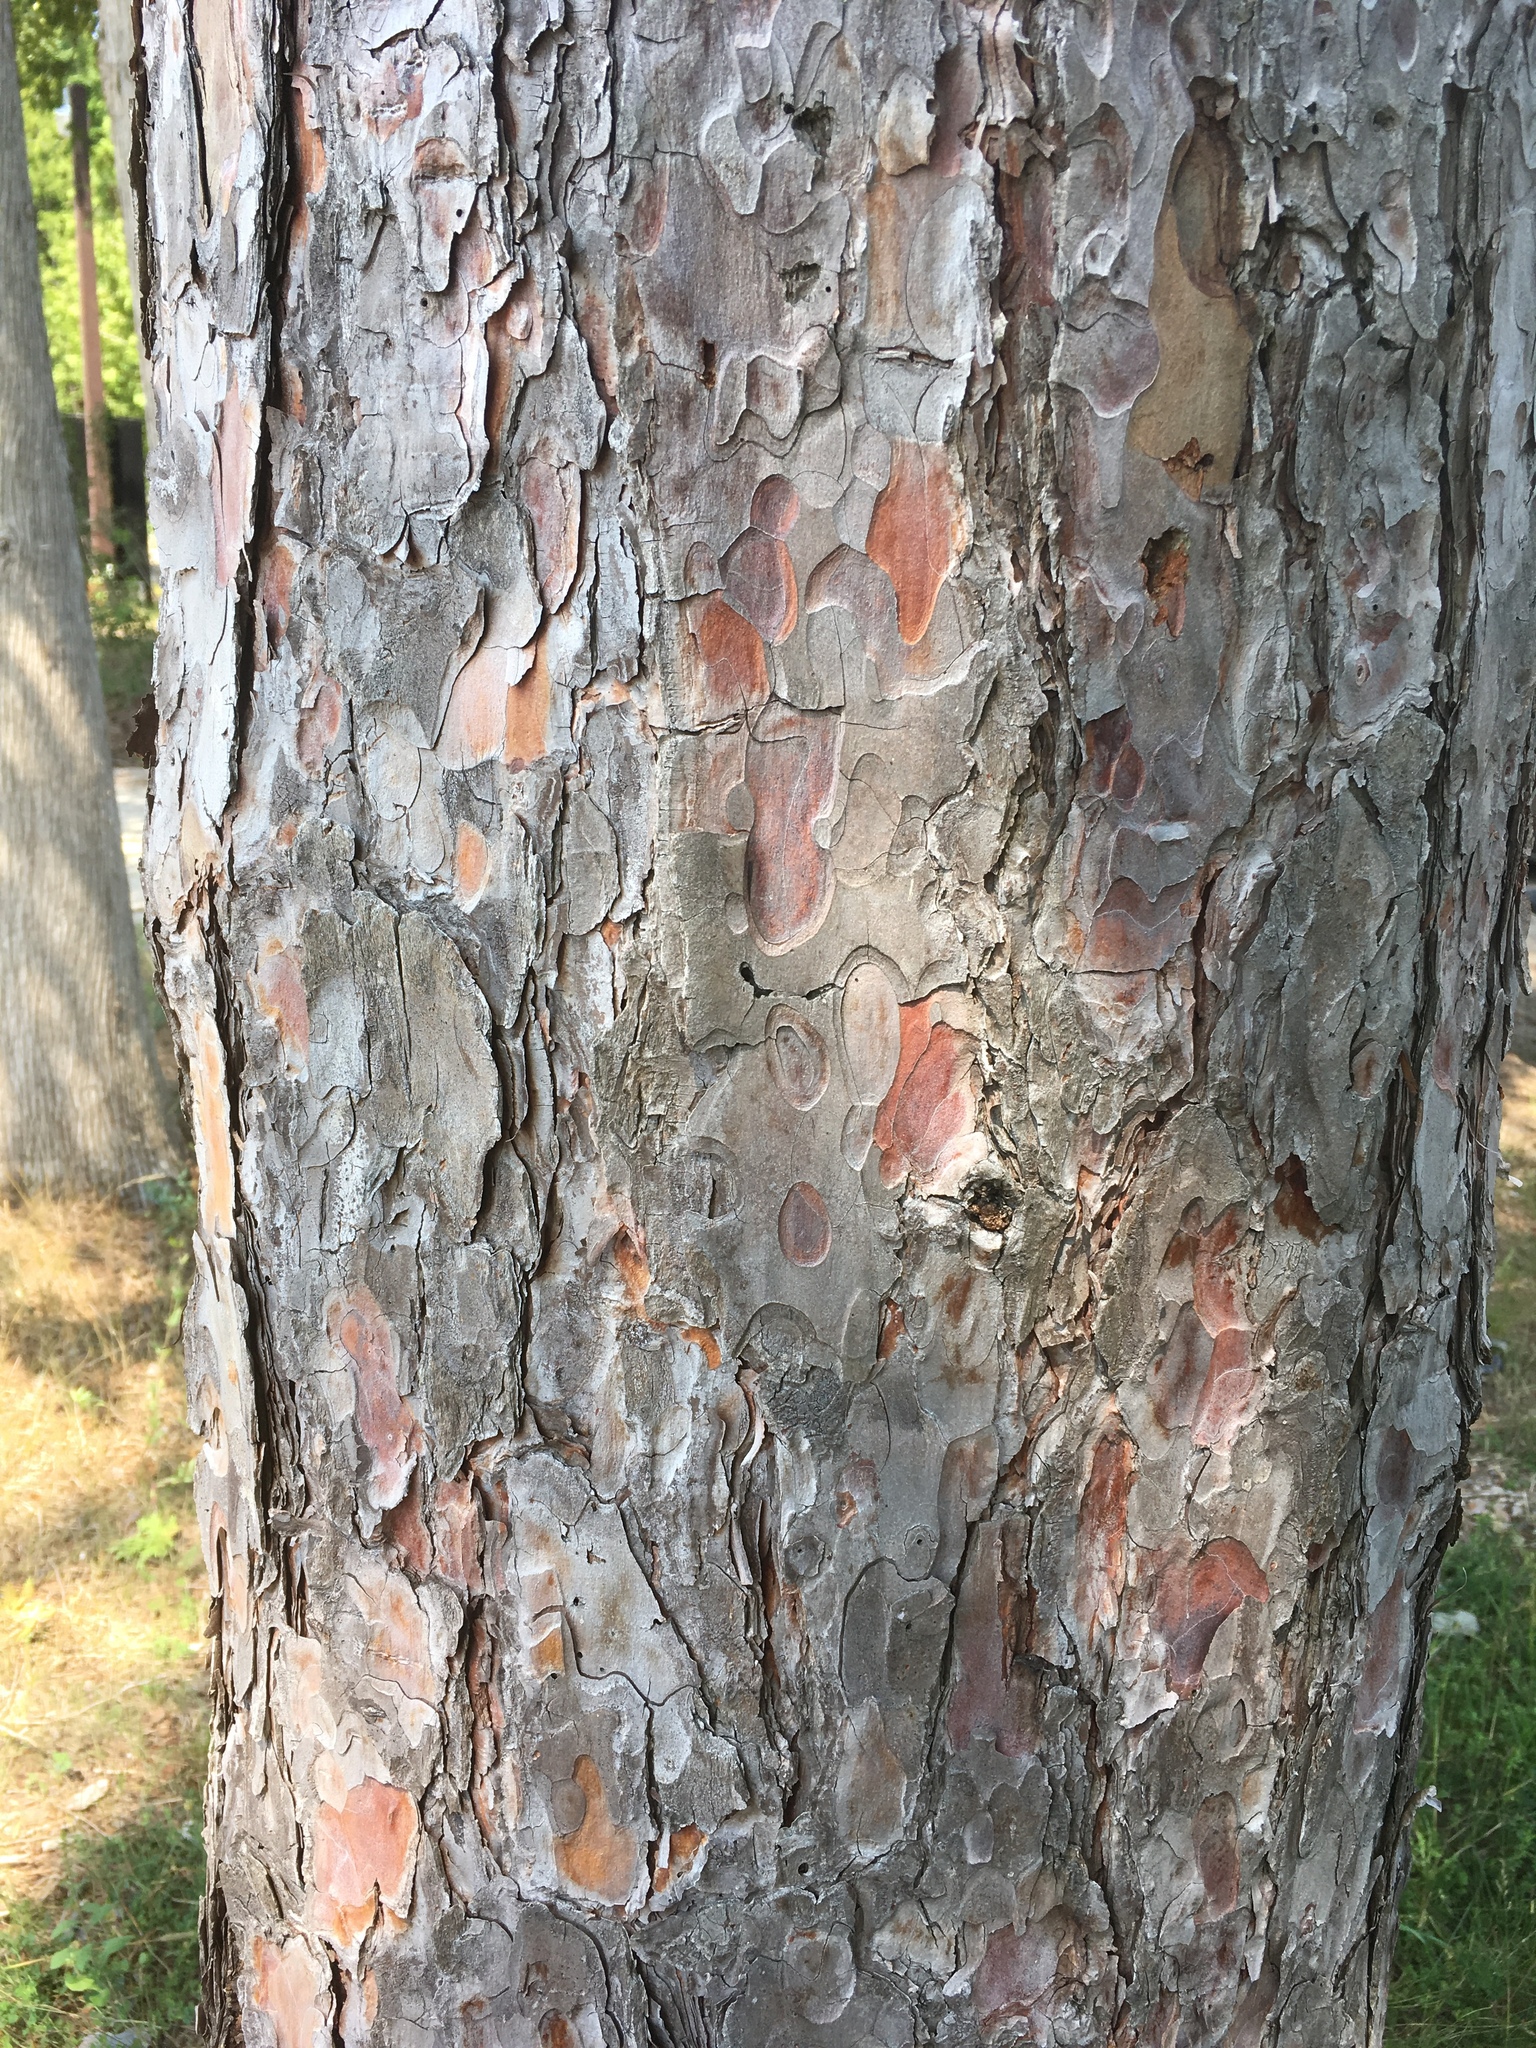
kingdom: Plantae
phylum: Tracheophyta
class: Pinopsida
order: Pinales
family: Pinaceae
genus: Pinus
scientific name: Pinus resinosa
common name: Norway pine
